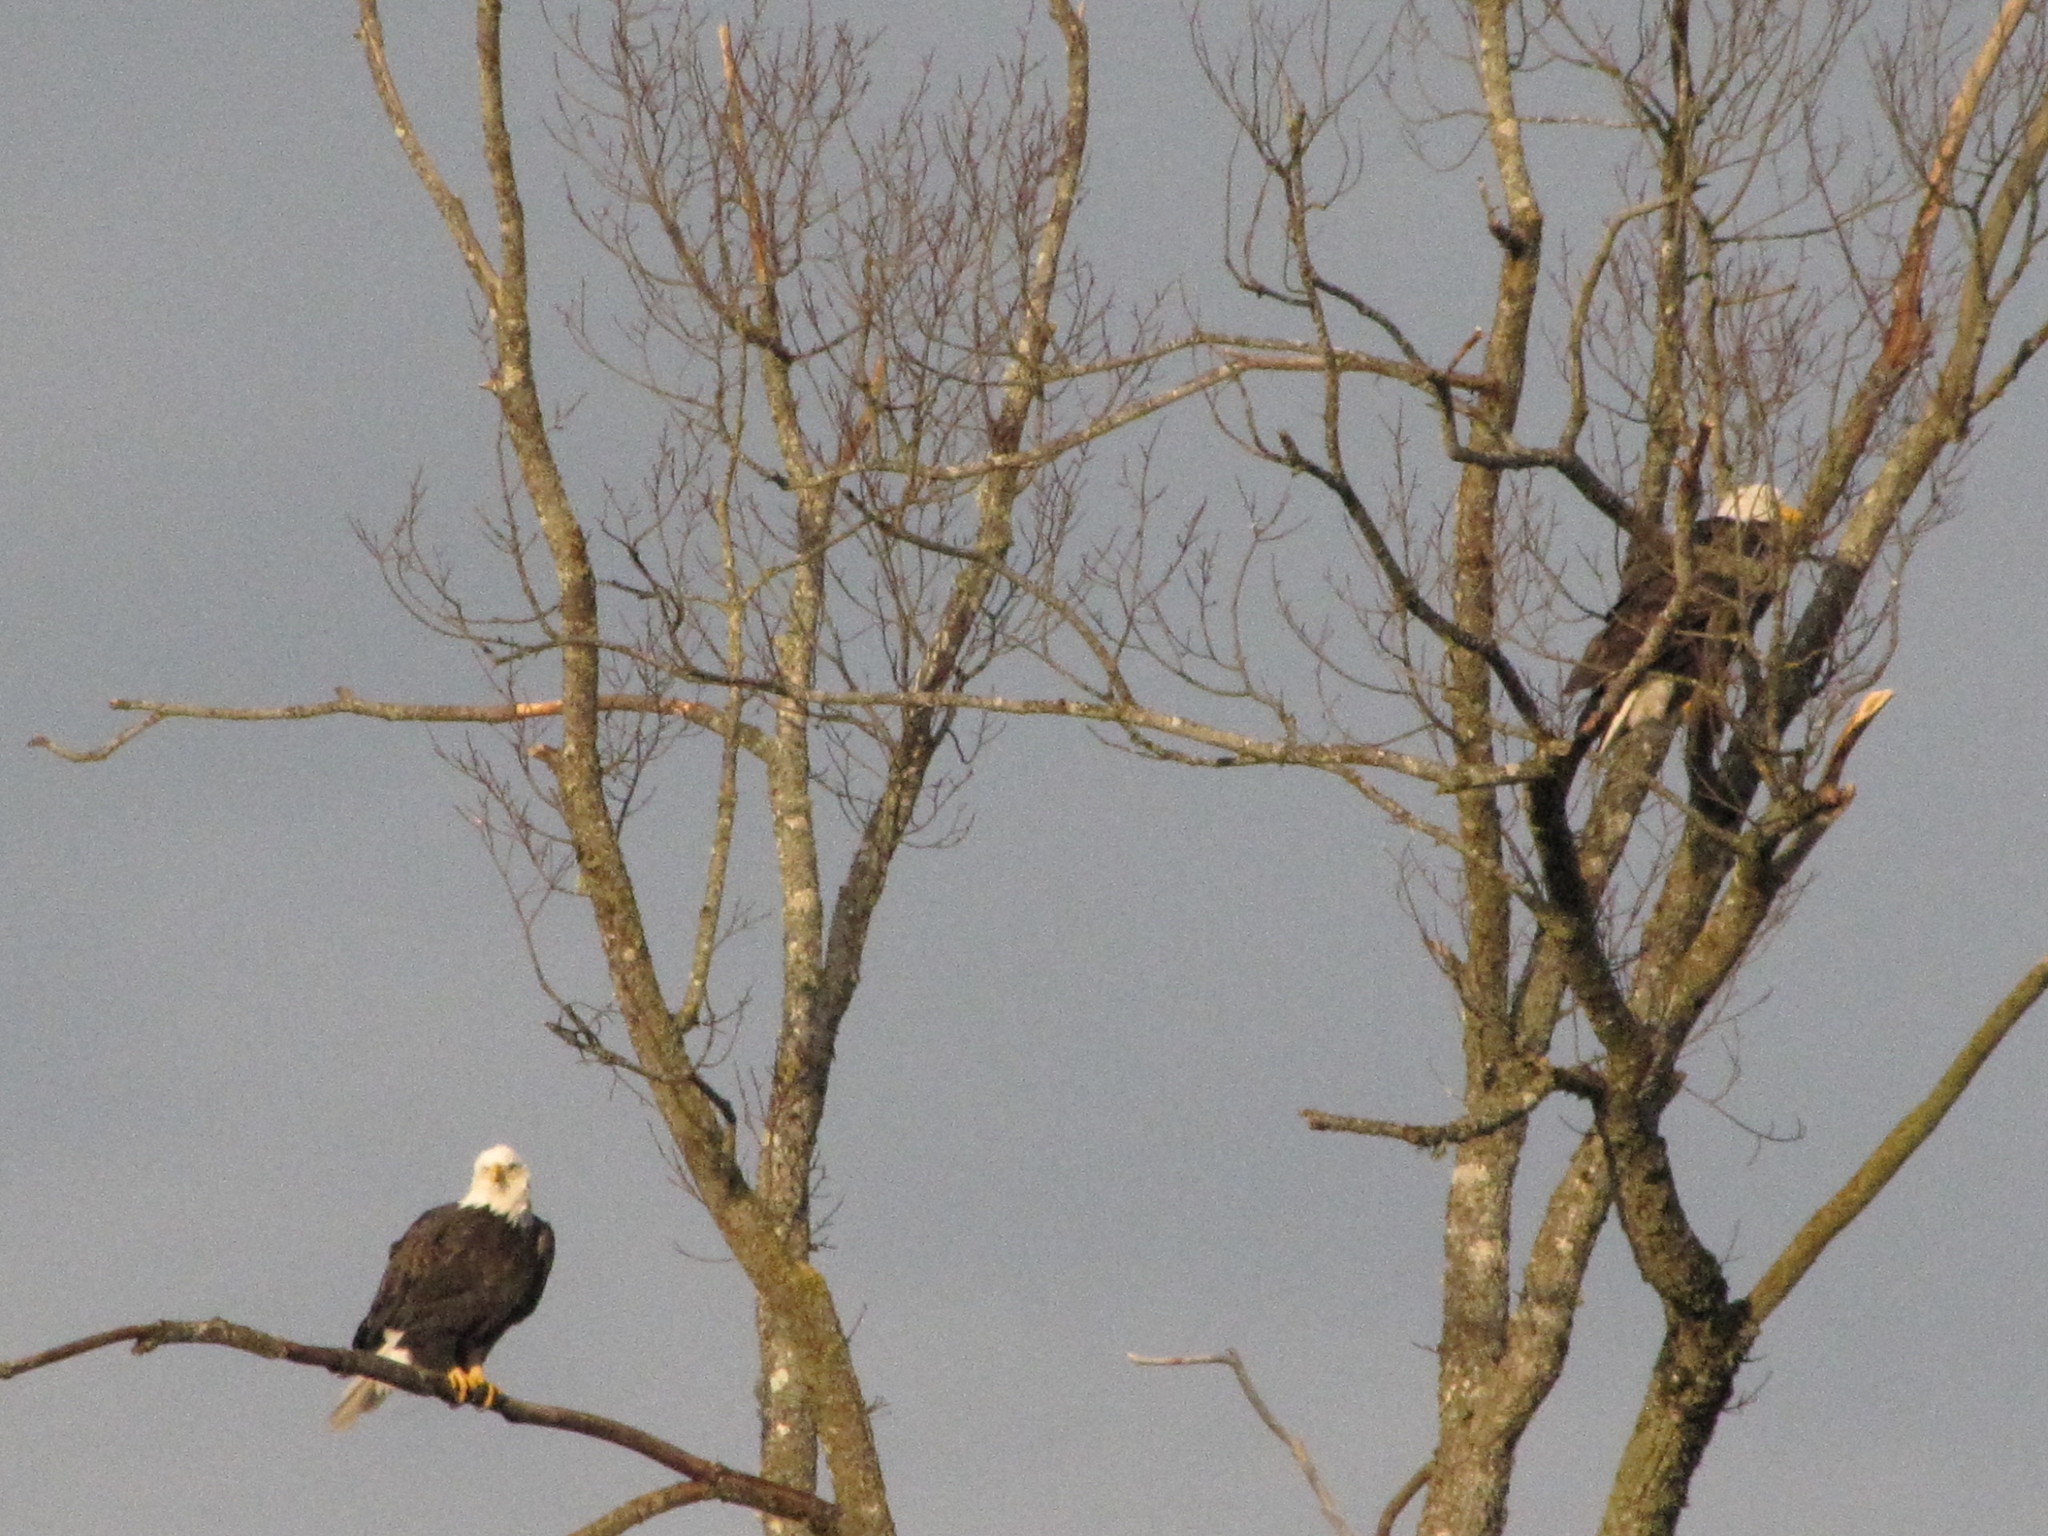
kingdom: Animalia
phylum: Chordata
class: Aves
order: Accipitriformes
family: Accipitridae
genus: Haliaeetus
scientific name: Haliaeetus leucocephalus
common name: Bald eagle
